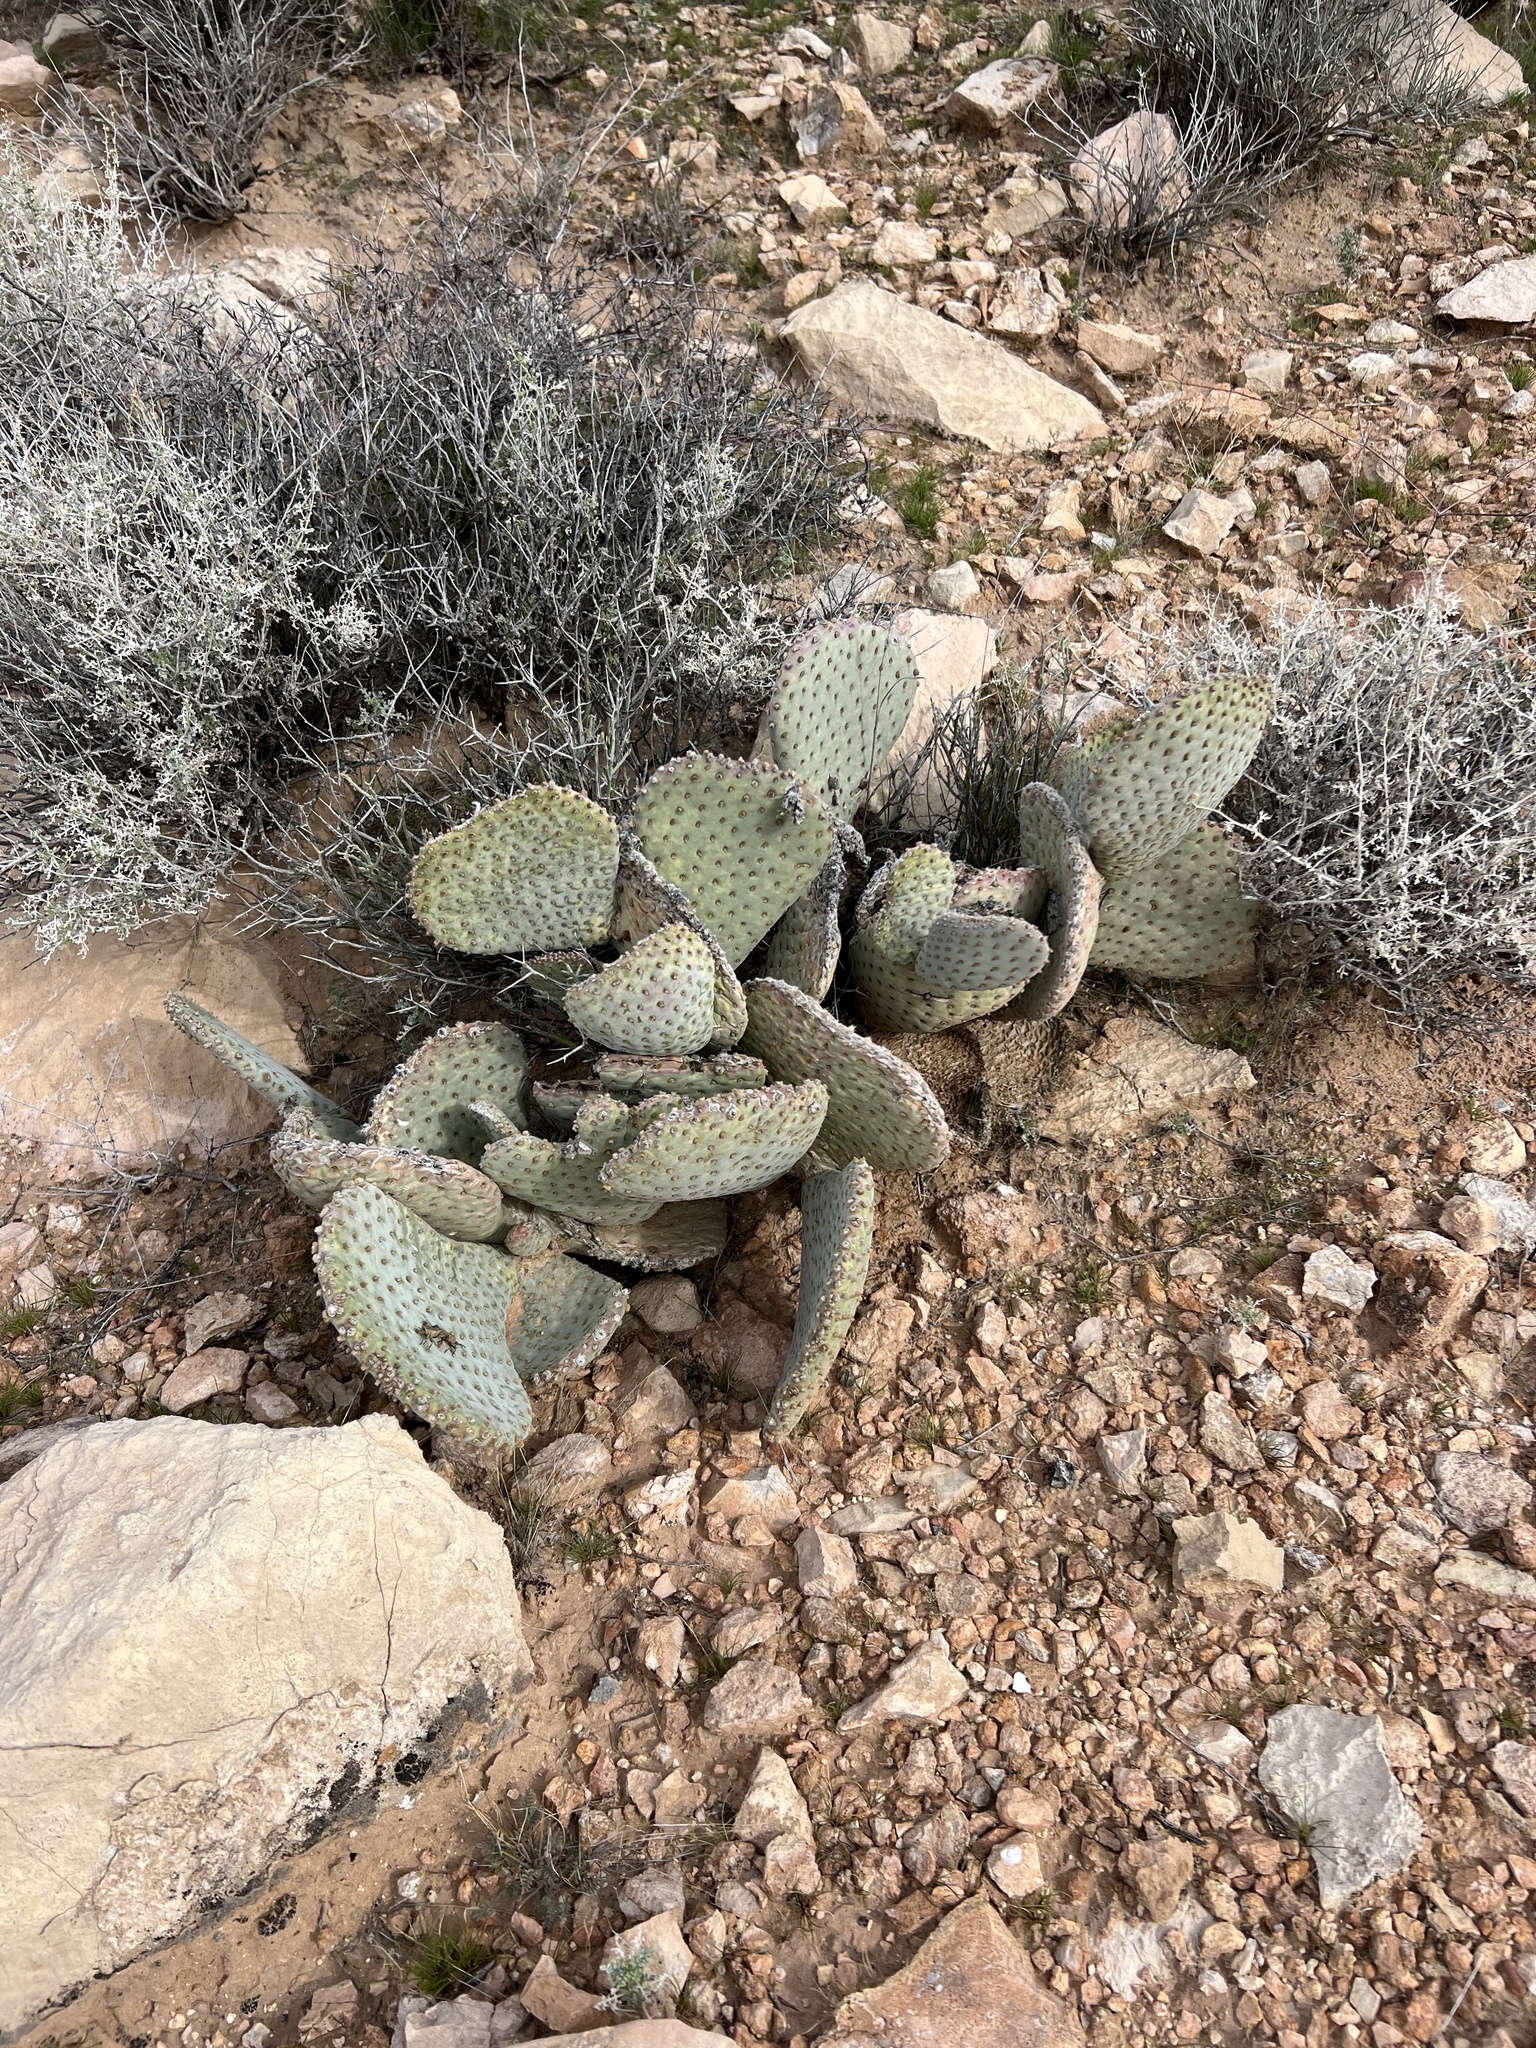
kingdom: Plantae
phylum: Tracheophyta
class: Magnoliopsida
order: Caryophyllales
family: Cactaceae
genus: Opuntia
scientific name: Opuntia basilaris
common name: Beavertail prickly-pear
